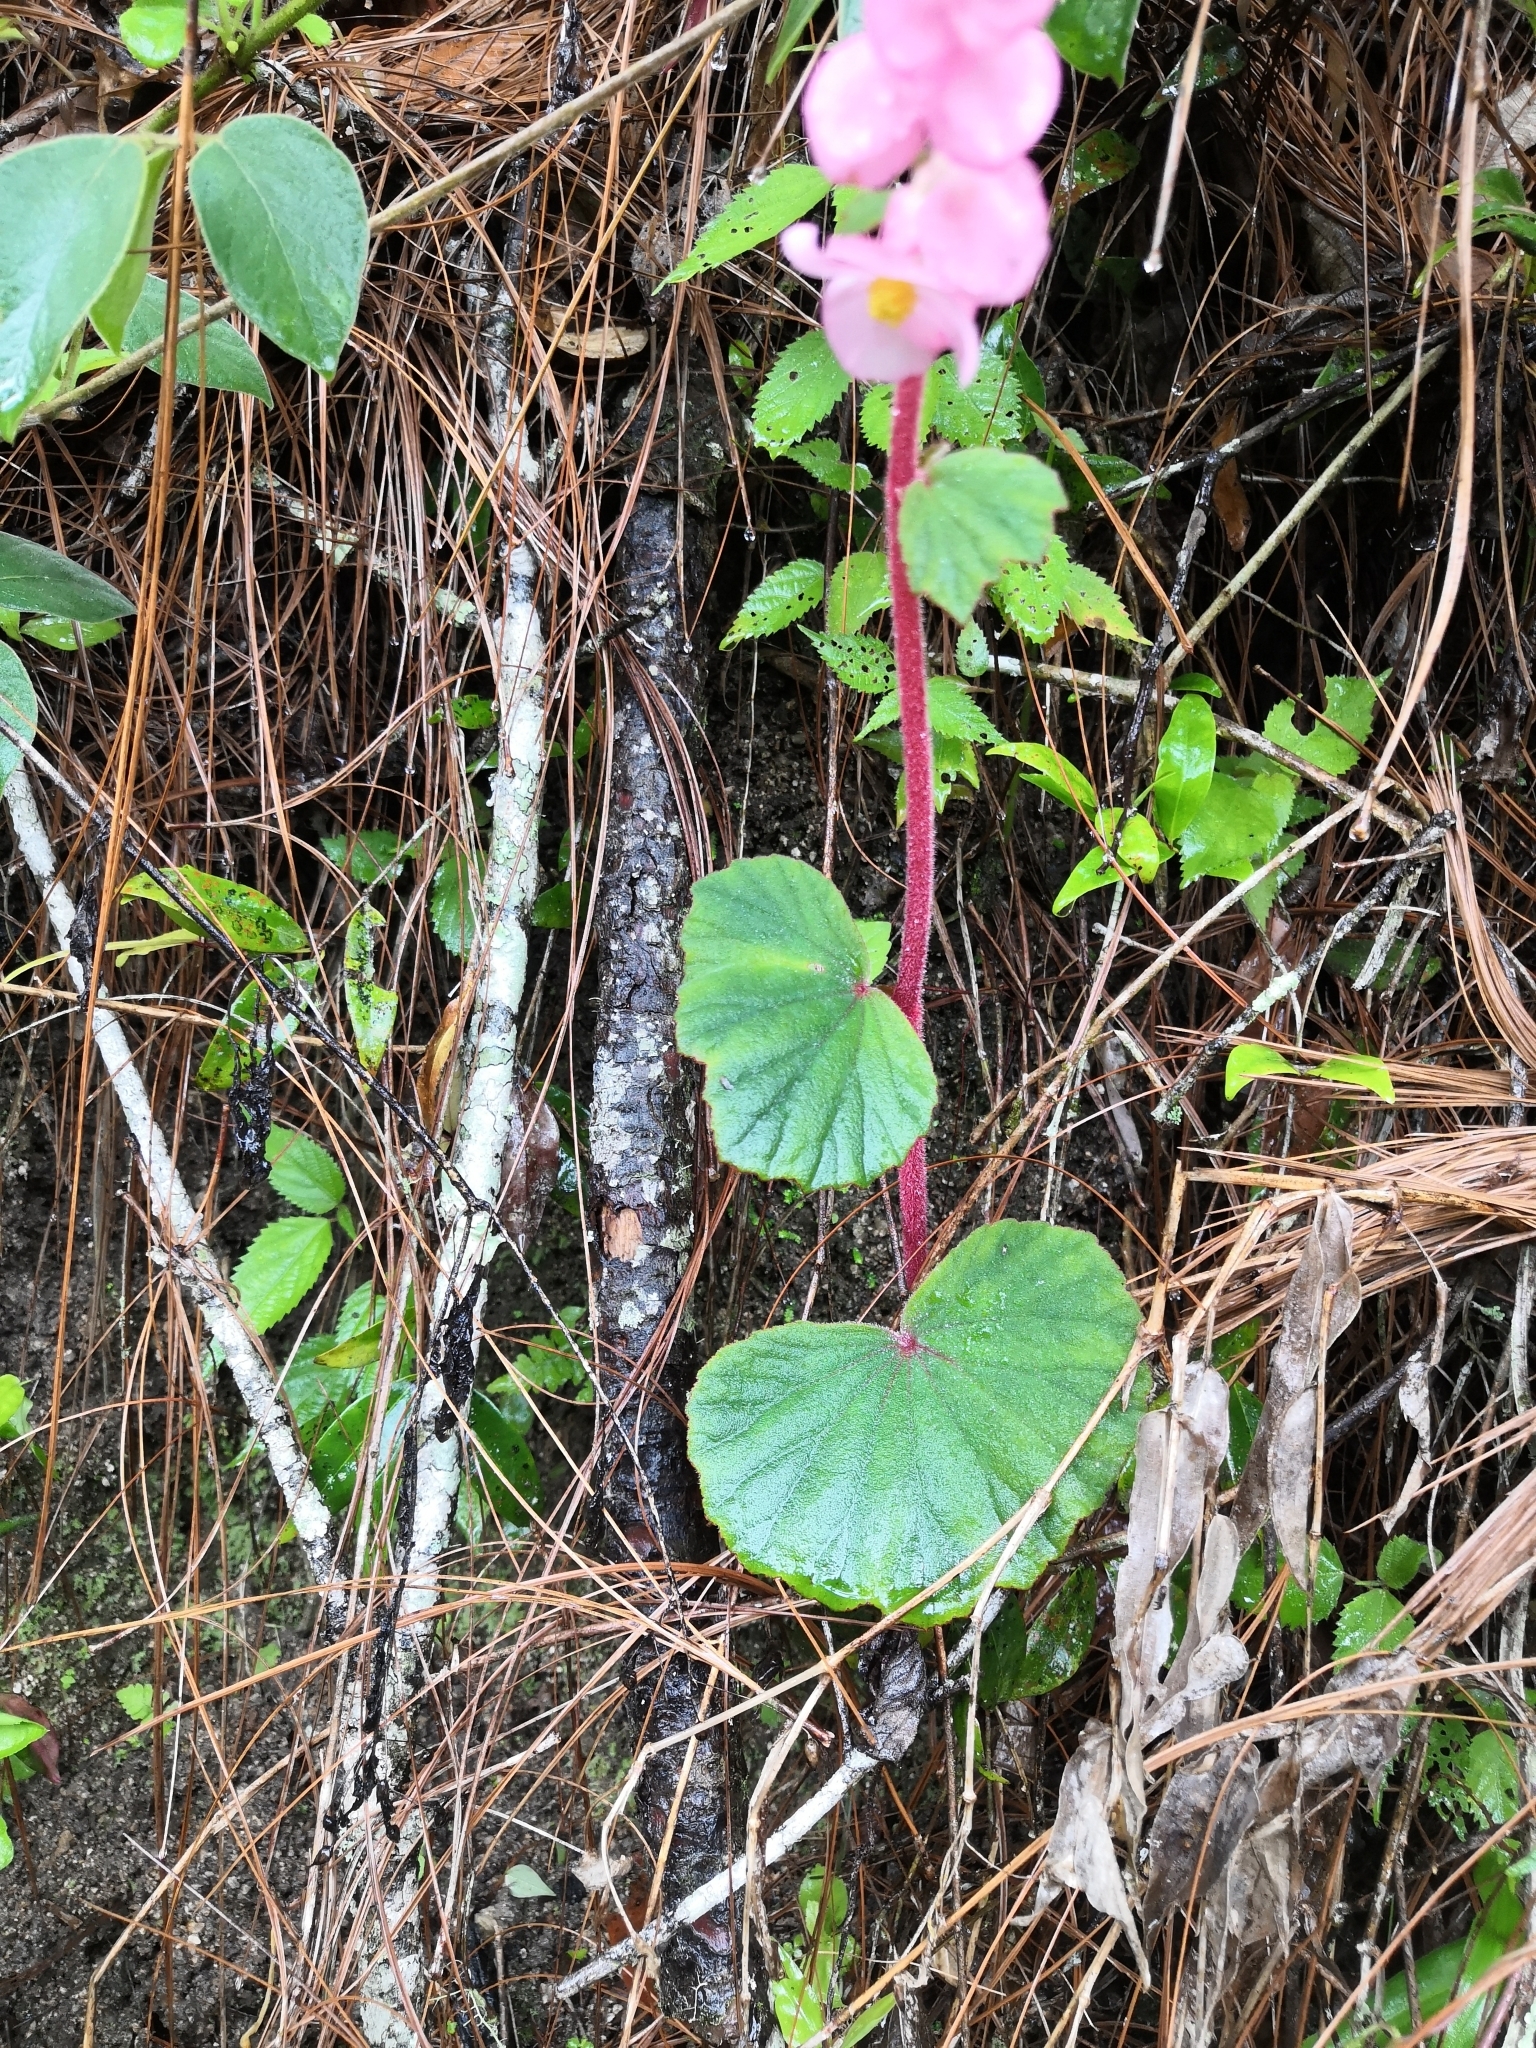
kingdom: Plantae
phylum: Tracheophyta
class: Magnoliopsida
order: Cucurbitales
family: Begoniaceae
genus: Begonia
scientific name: Begonia balmisiana
